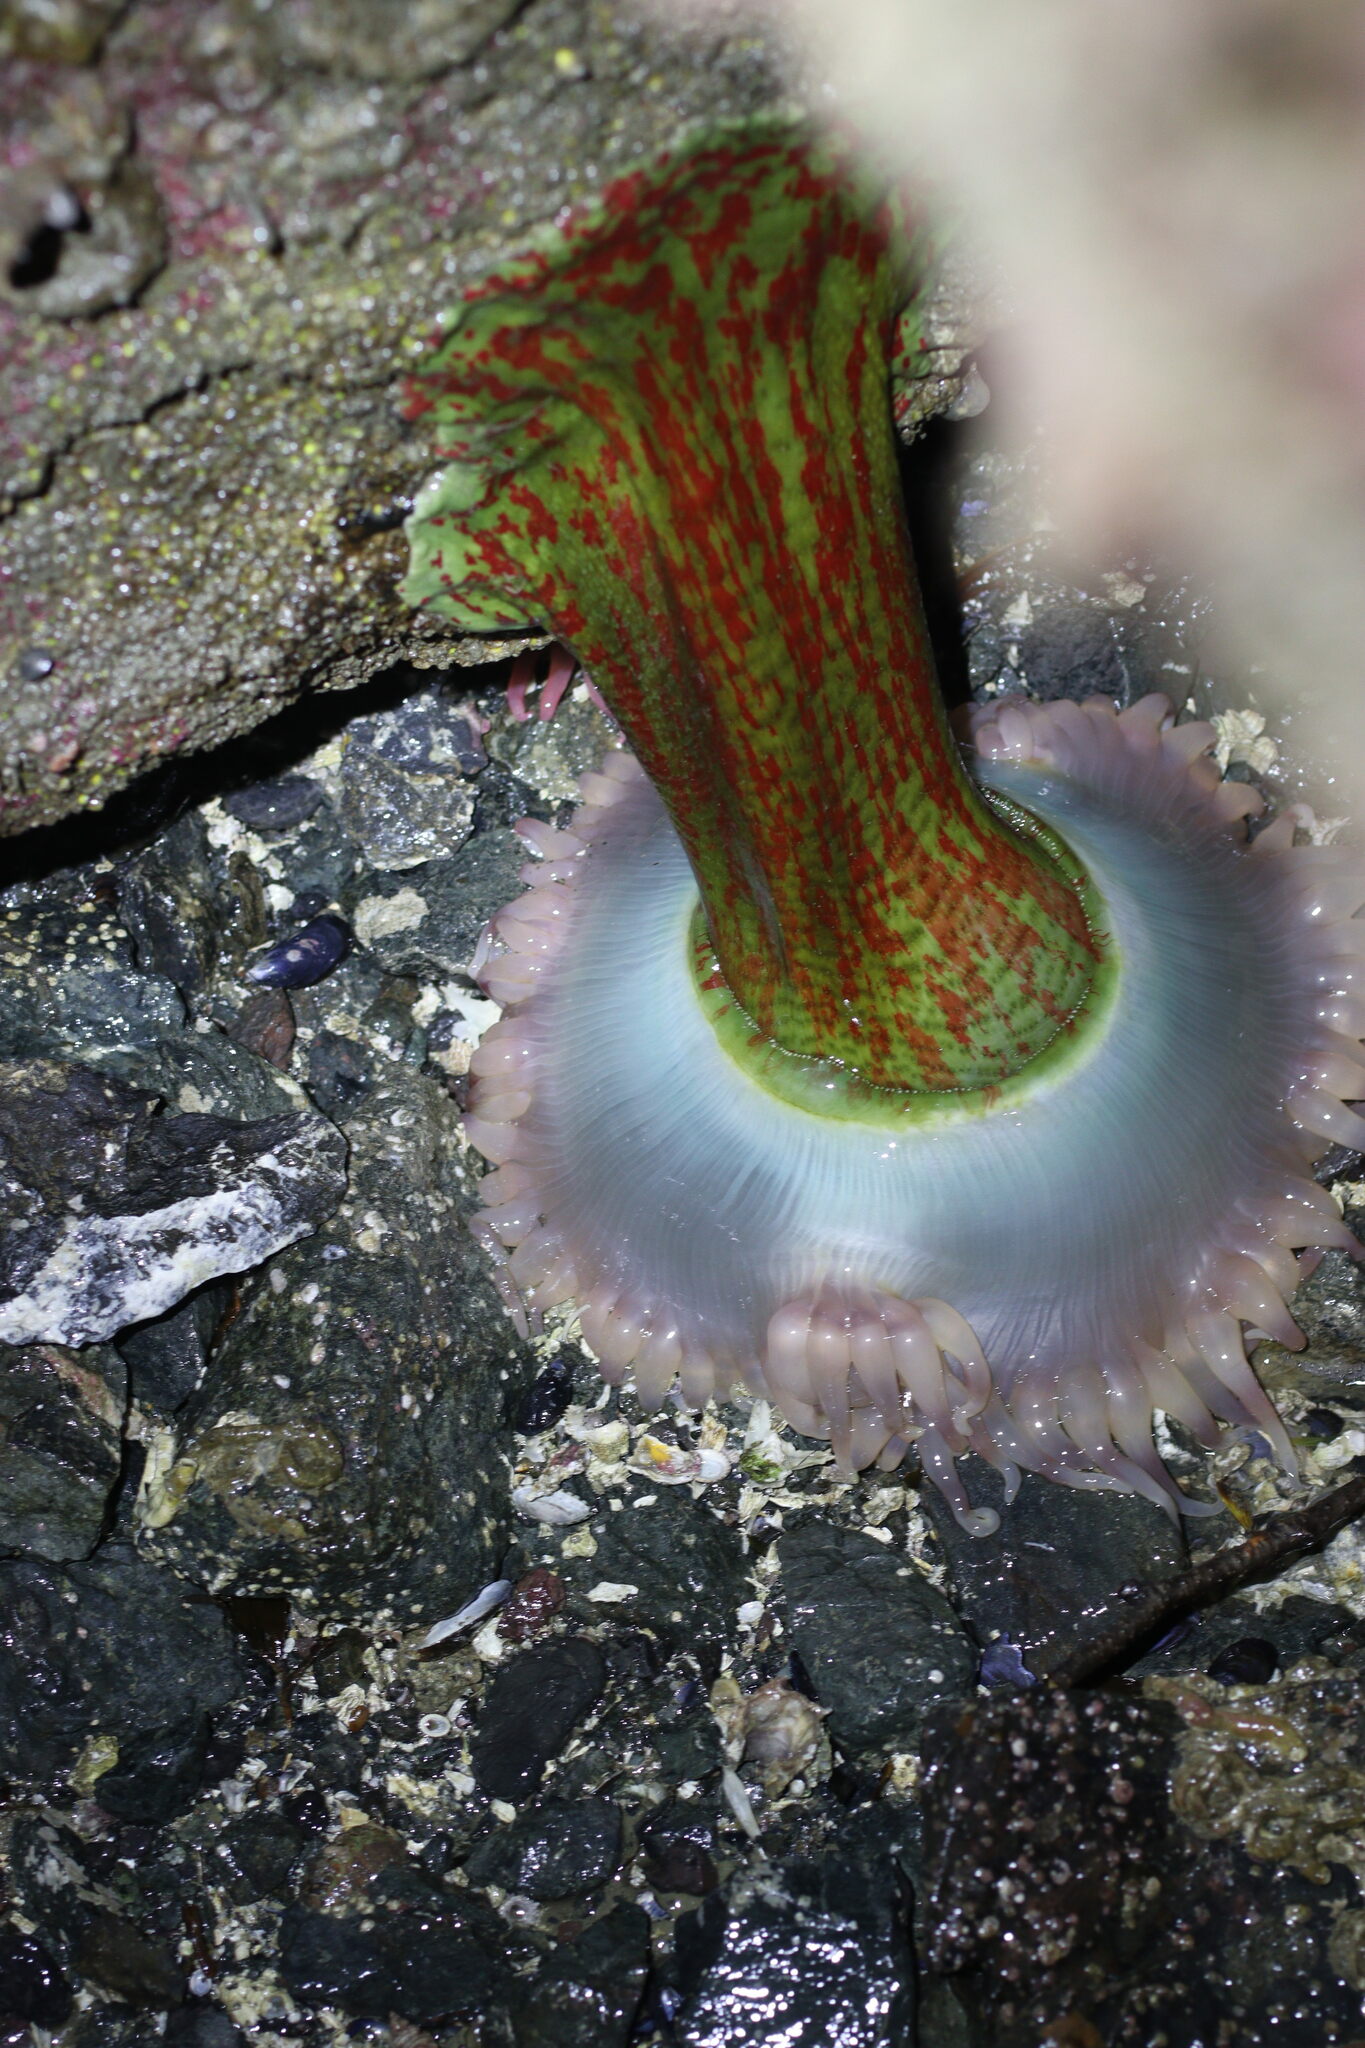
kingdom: Animalia
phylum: Cnidaria
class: Anthozoa
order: Actiniaria
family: Actiniidae
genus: Urticina
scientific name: Urticina grebelnyi
